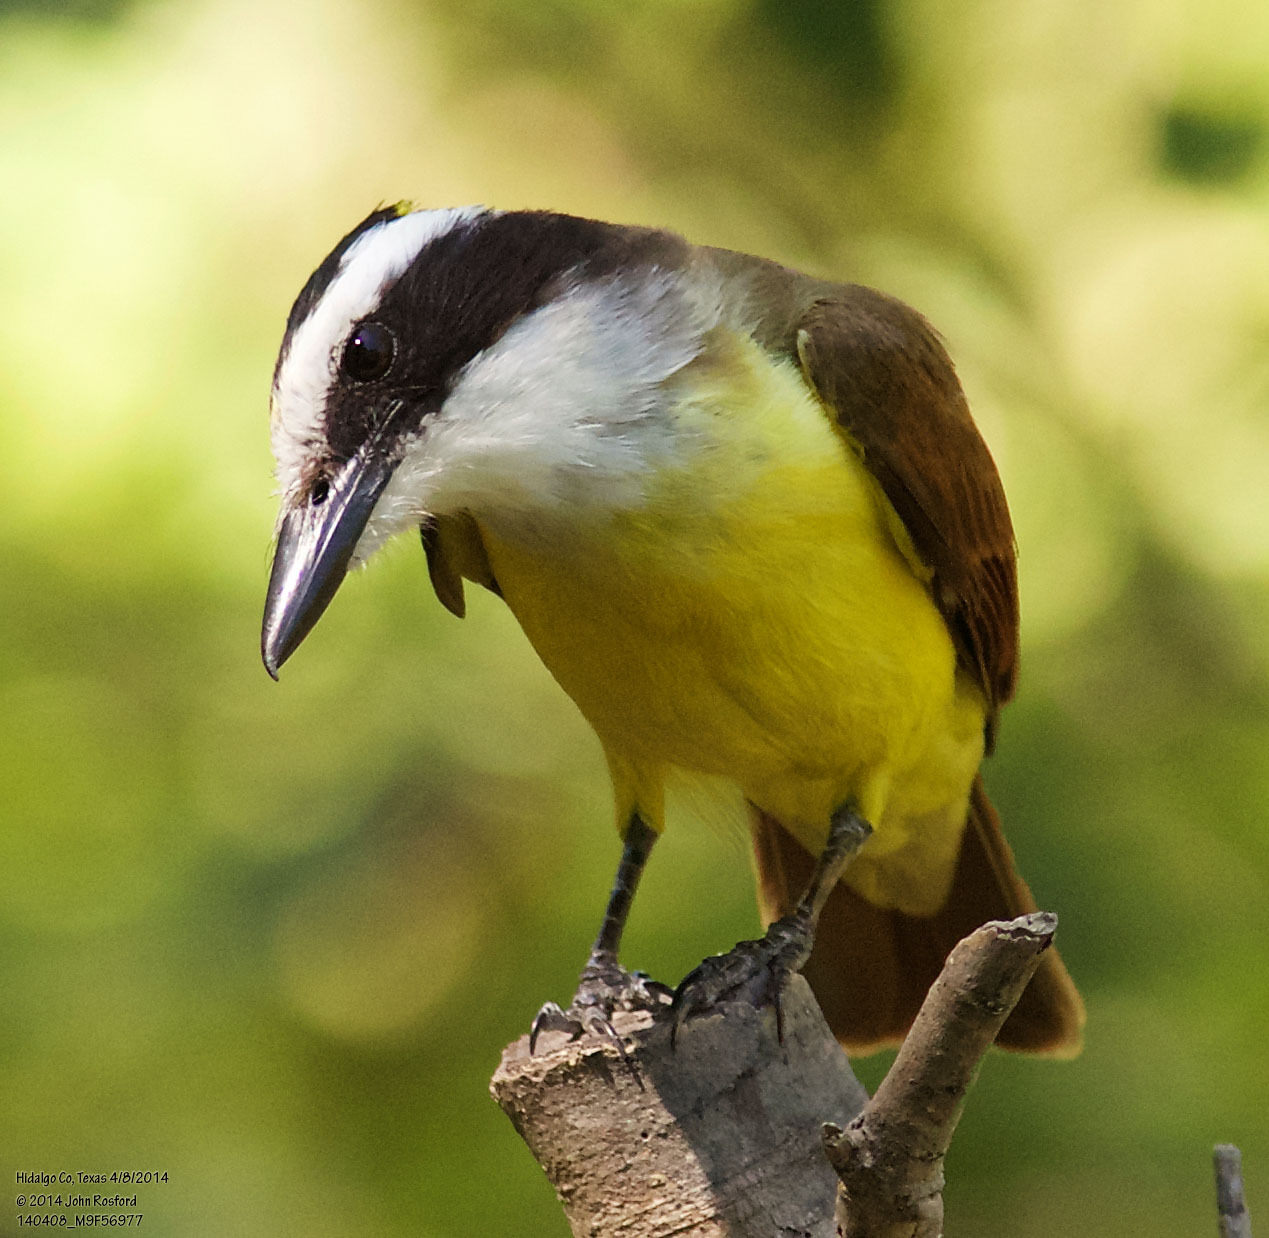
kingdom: Animalia
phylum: Chordata
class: Aves
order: Passeriformes
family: Tyrannidae
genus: Pitangus
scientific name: Pitangus sulphuratus
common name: Great kiskadee
